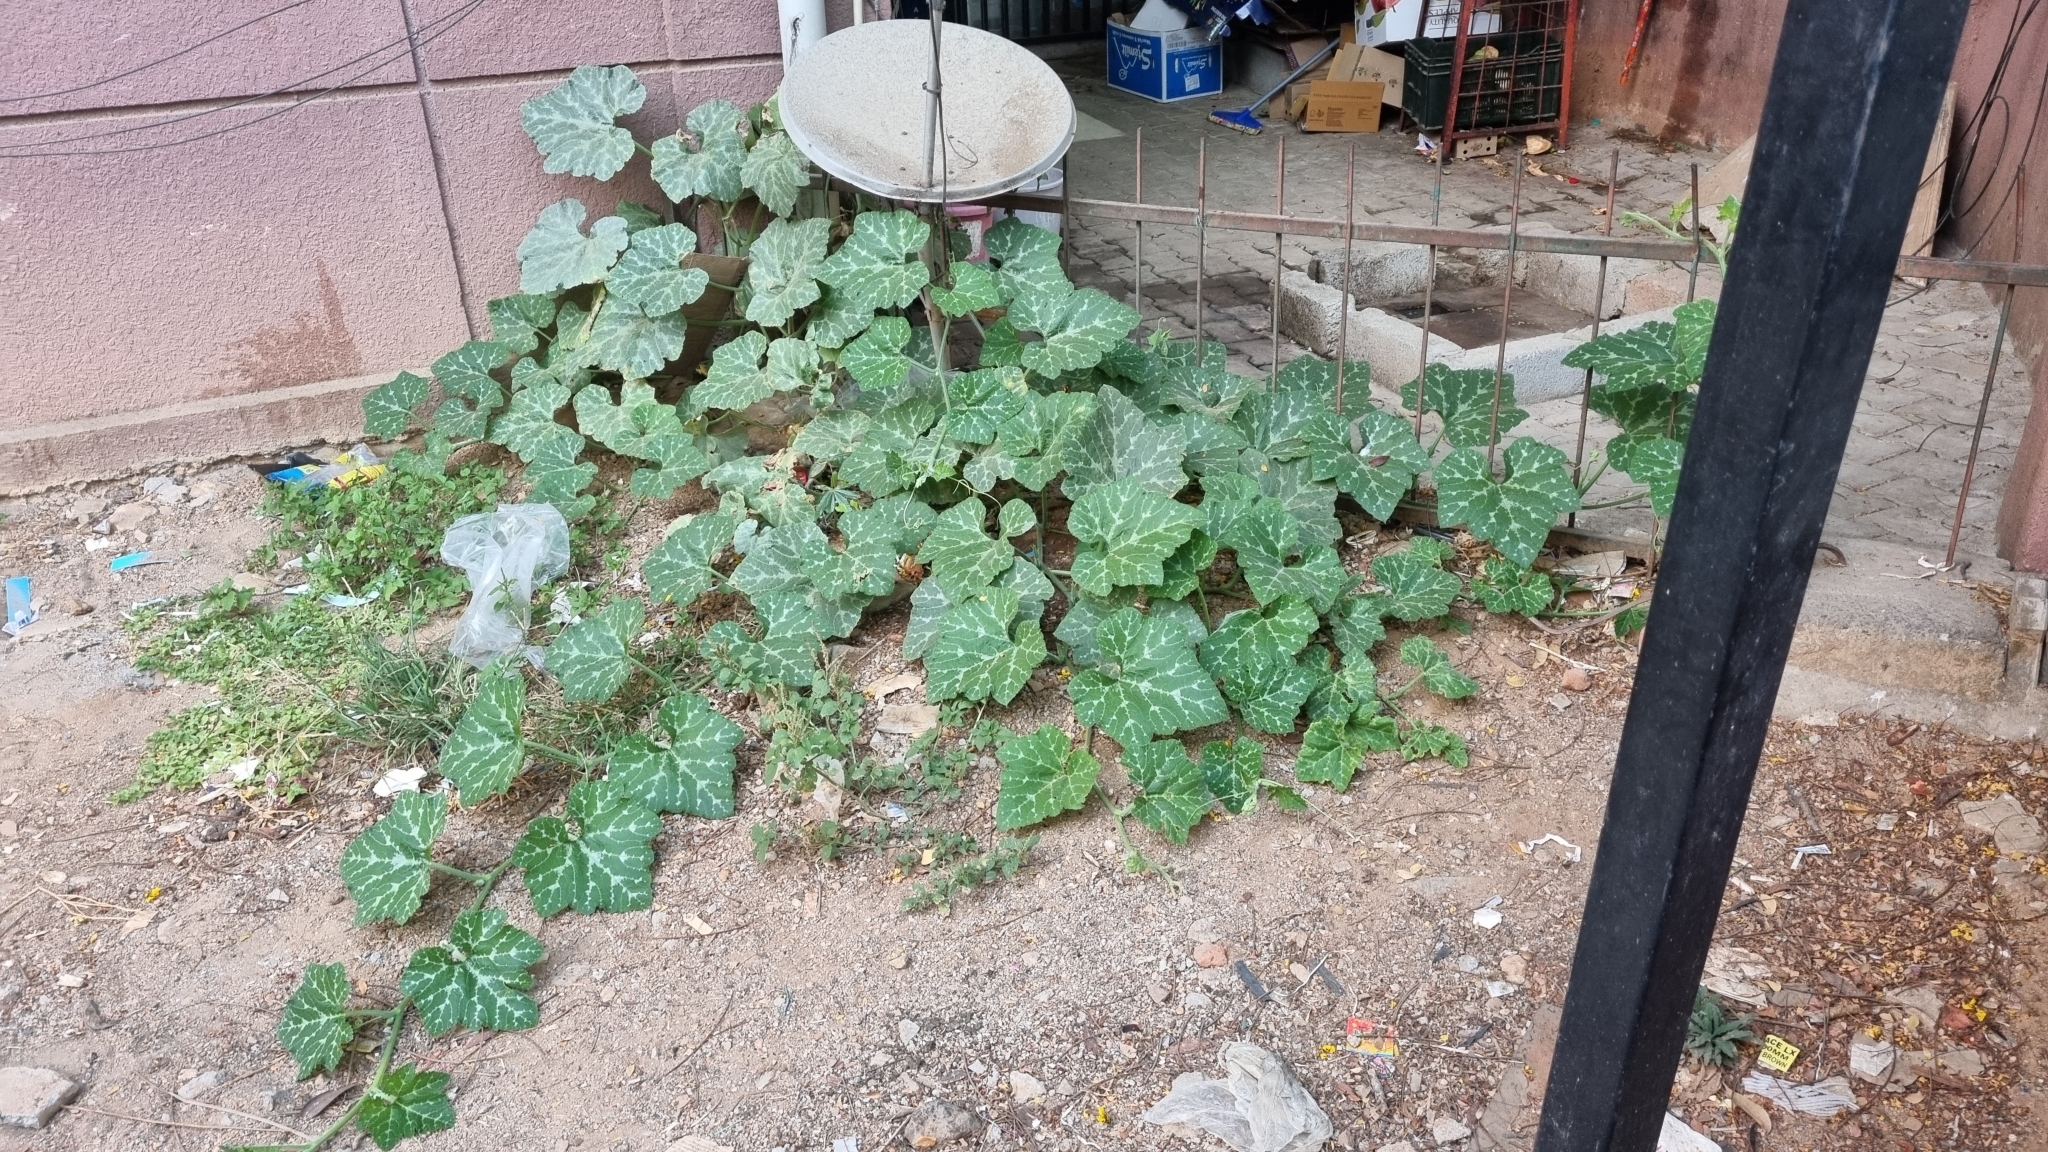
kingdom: Plantae
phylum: Tracheophyta
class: Magnoliopsida
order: Cucurbitales
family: Cucurbitaceae
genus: Cucurbita
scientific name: Cucurbita moschata
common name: Squash / pumpkin
